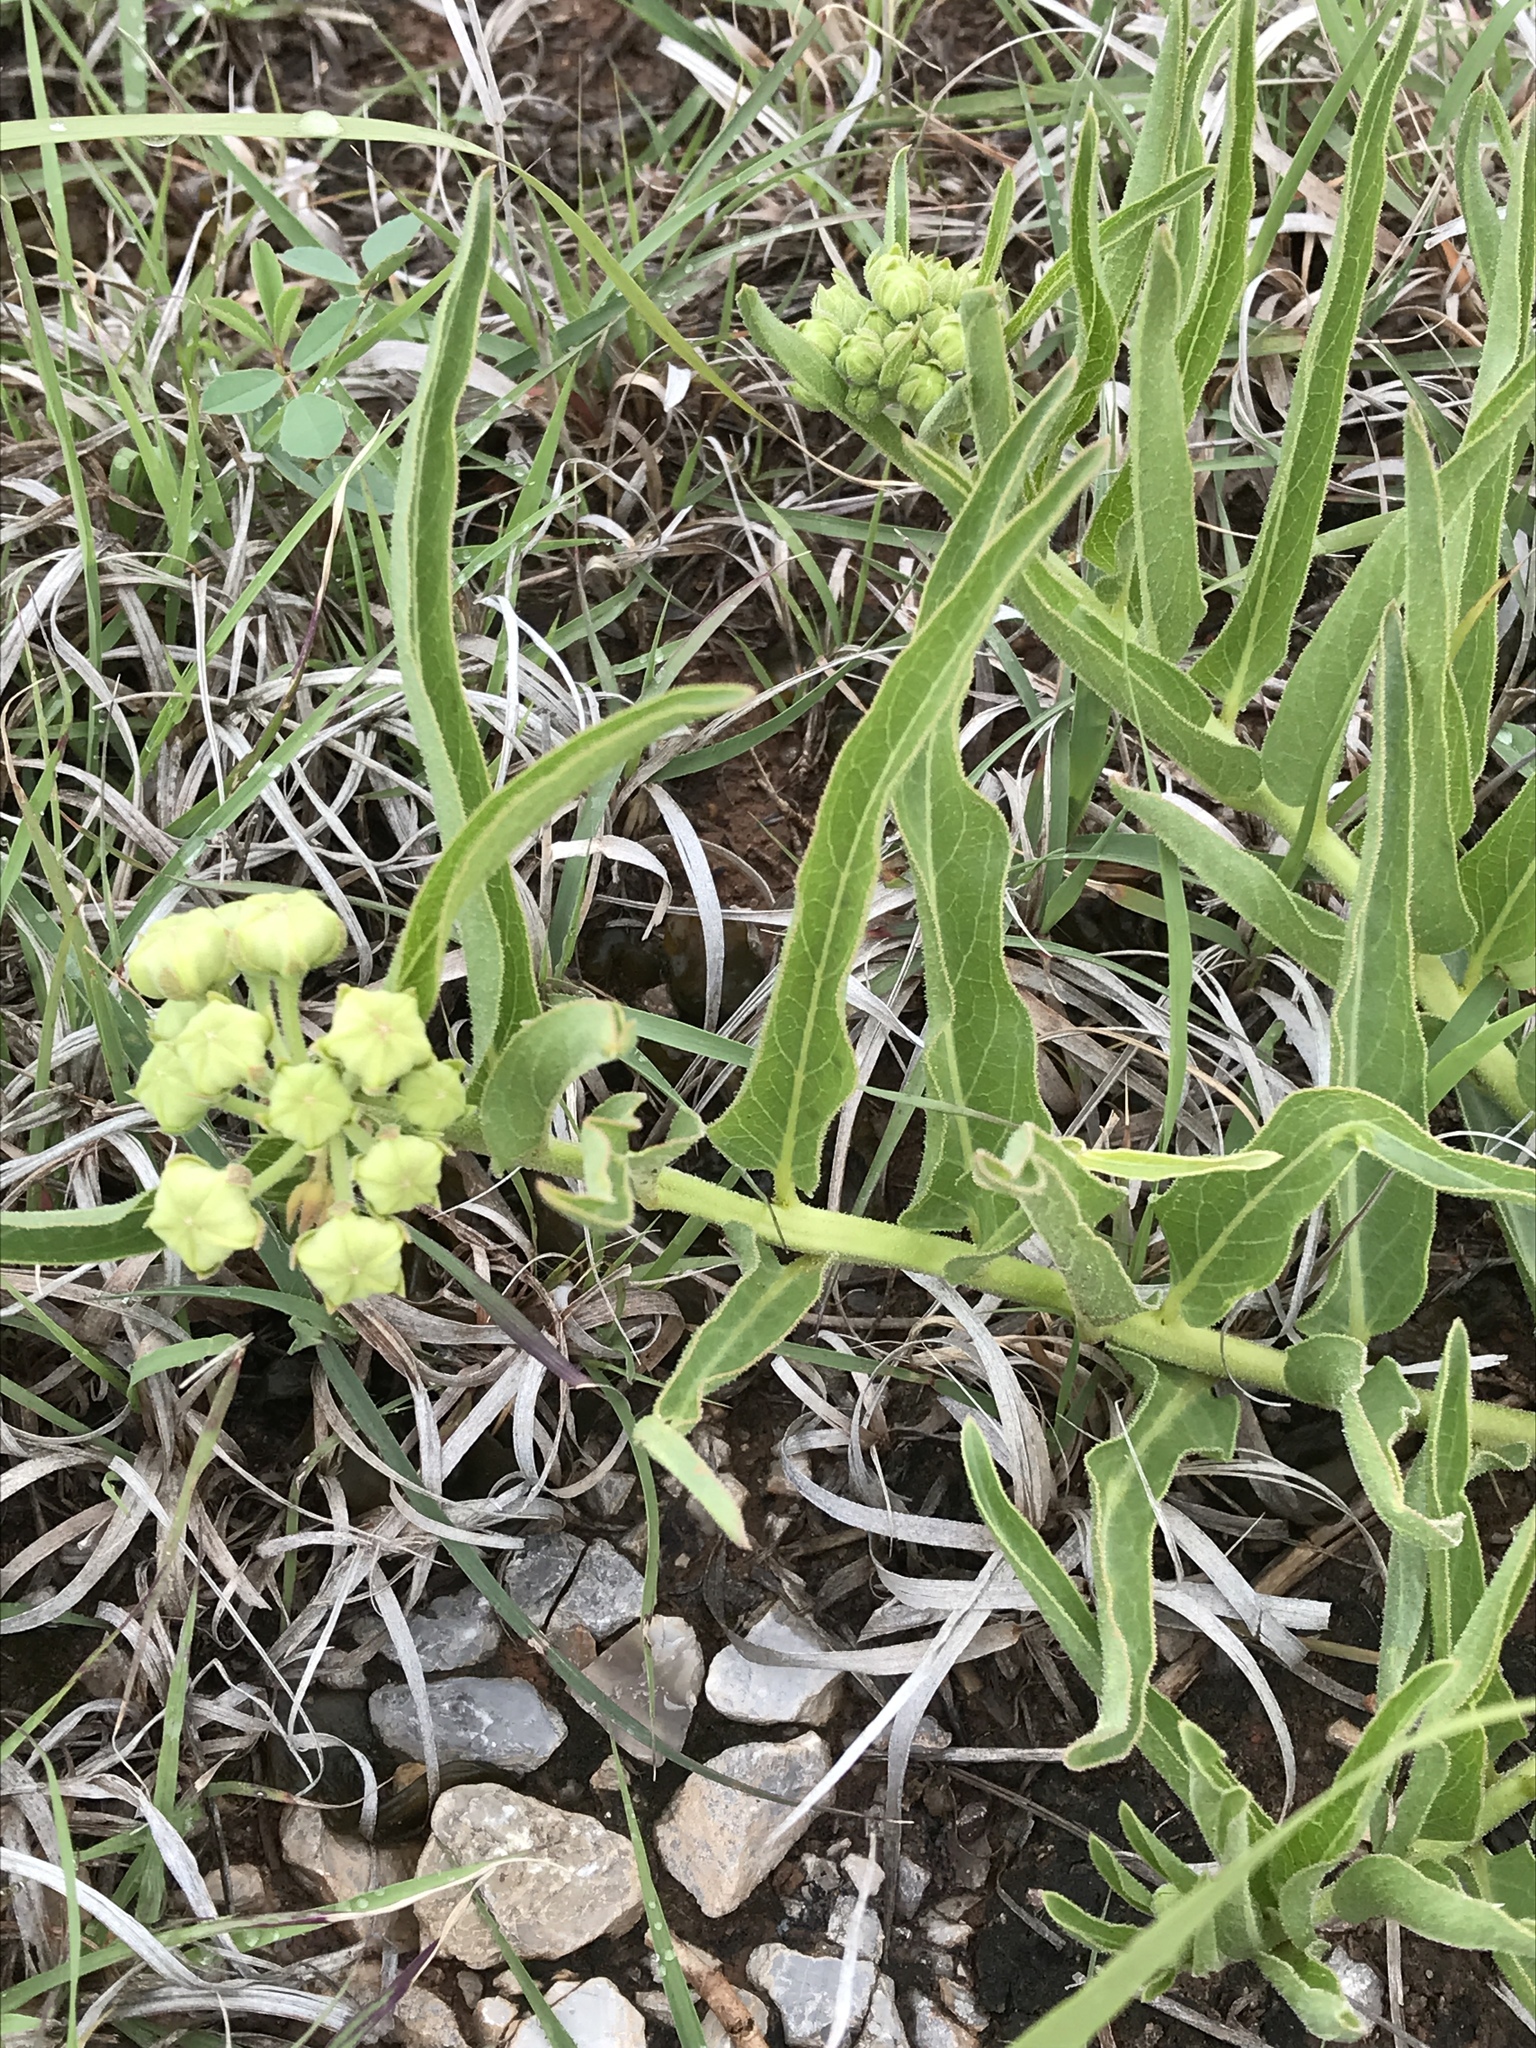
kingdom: Plantae
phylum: Tracheophyta
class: Magnoliopsida
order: Gentianales
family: Apocynaceae
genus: Asclepias
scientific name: Asclepias asperula
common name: Antelope horns
